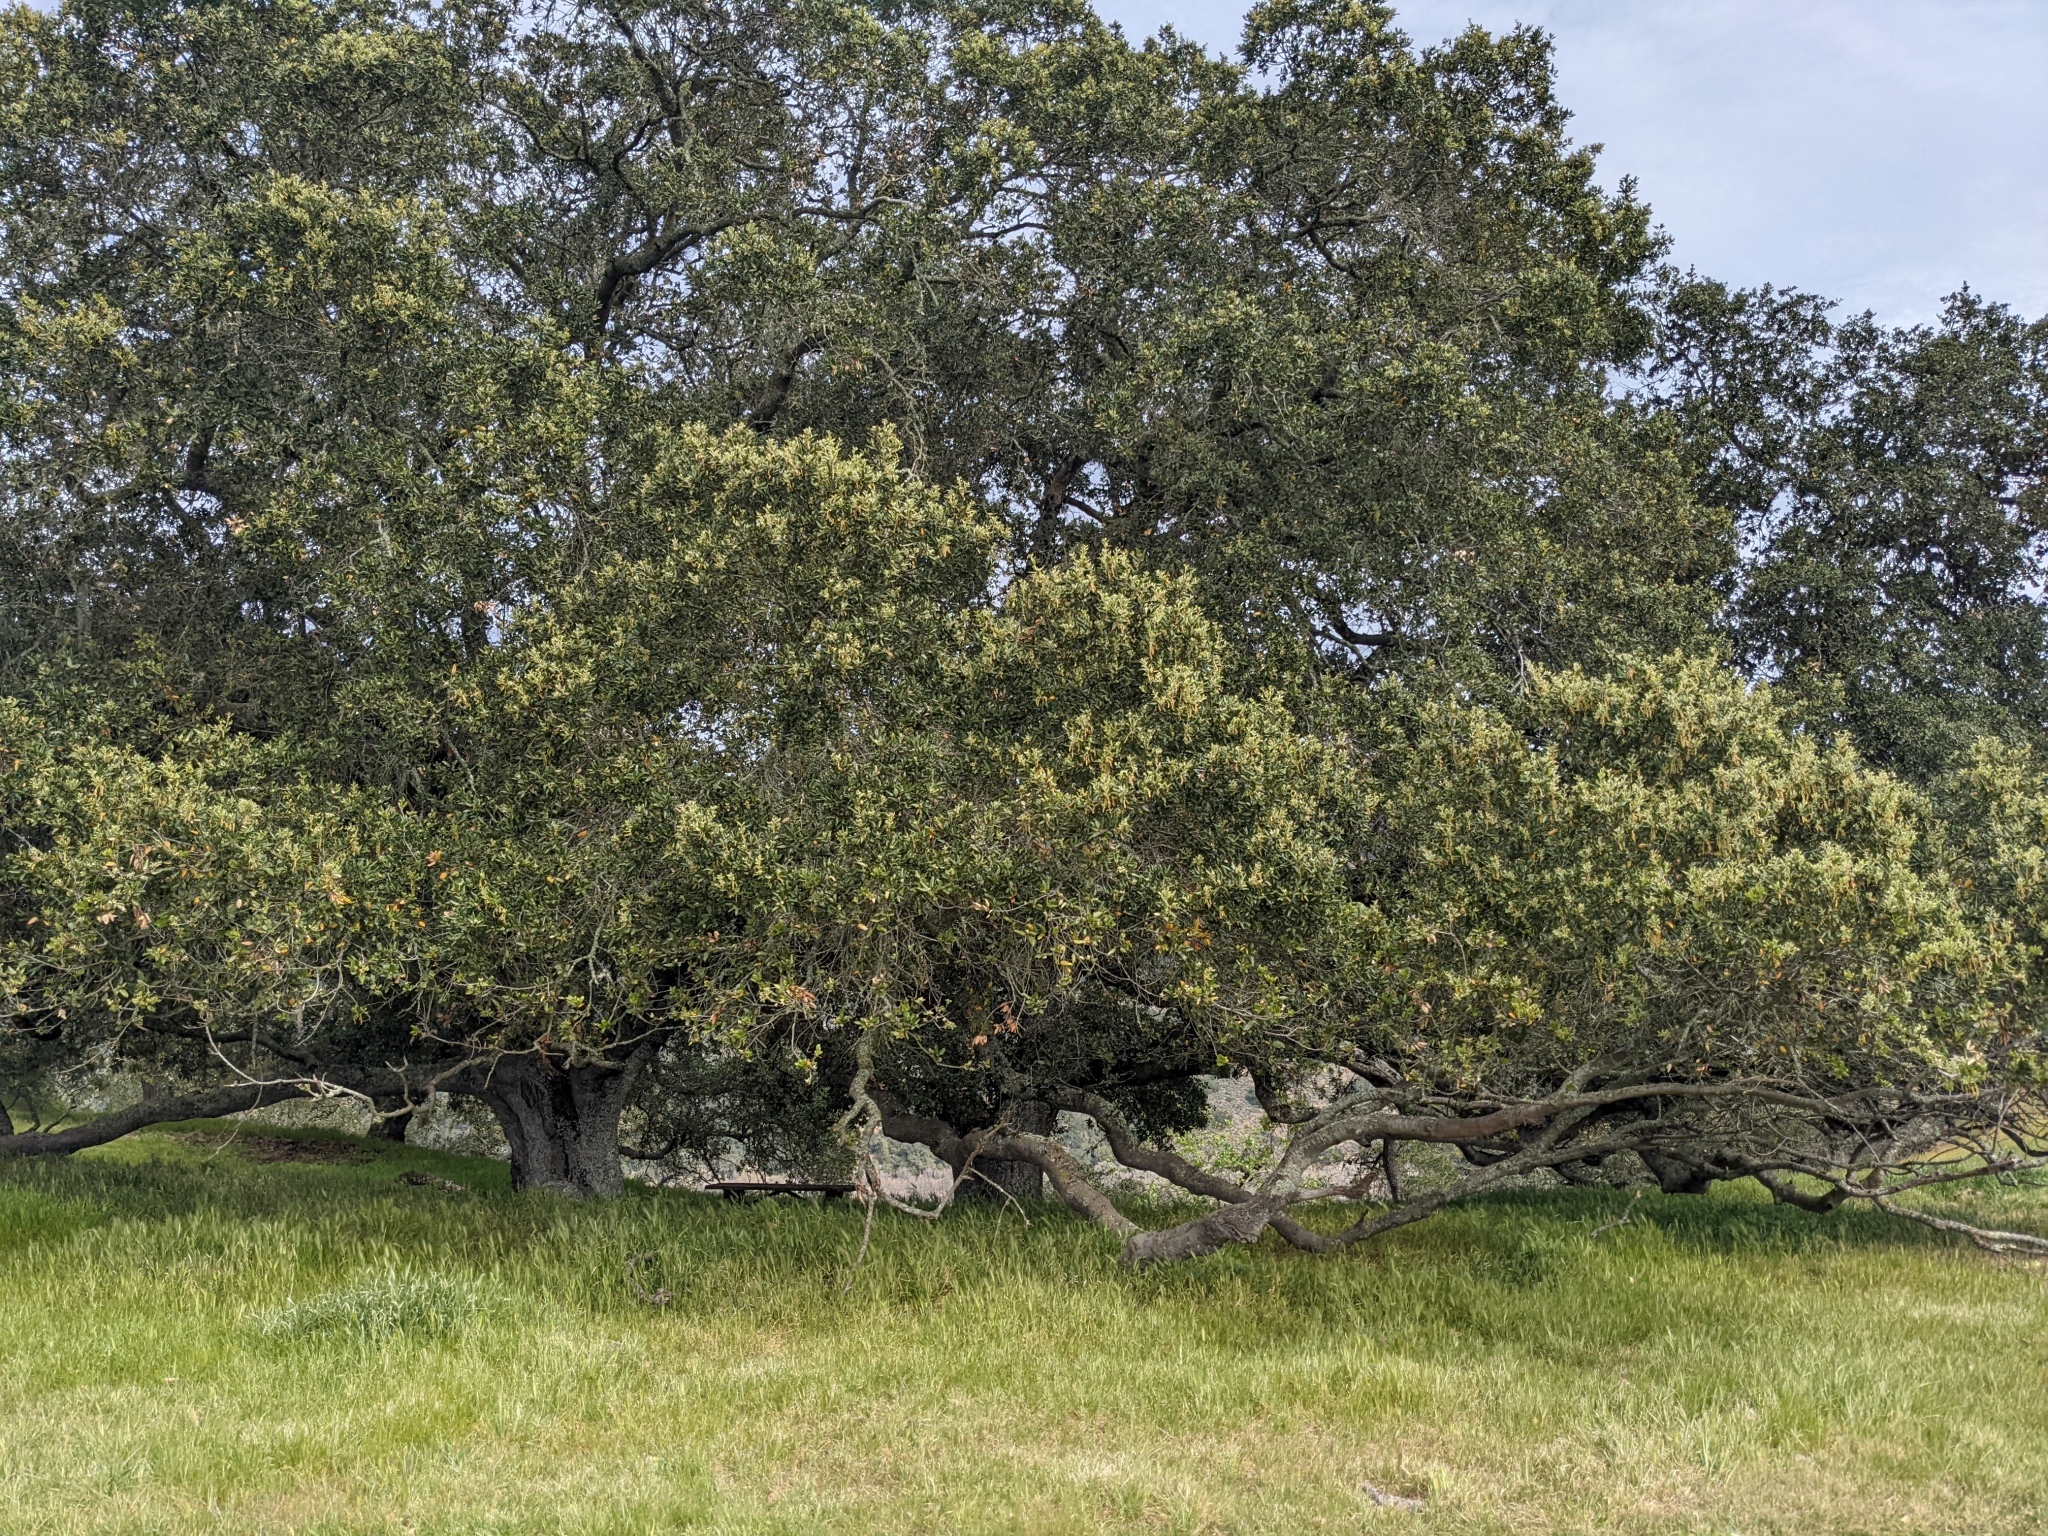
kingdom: Plantae
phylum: Tracheophyta
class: Magnoliopsida
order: Fagales
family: Fagaceae
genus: Quercus
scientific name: Quercus agrifolia
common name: California live oak
